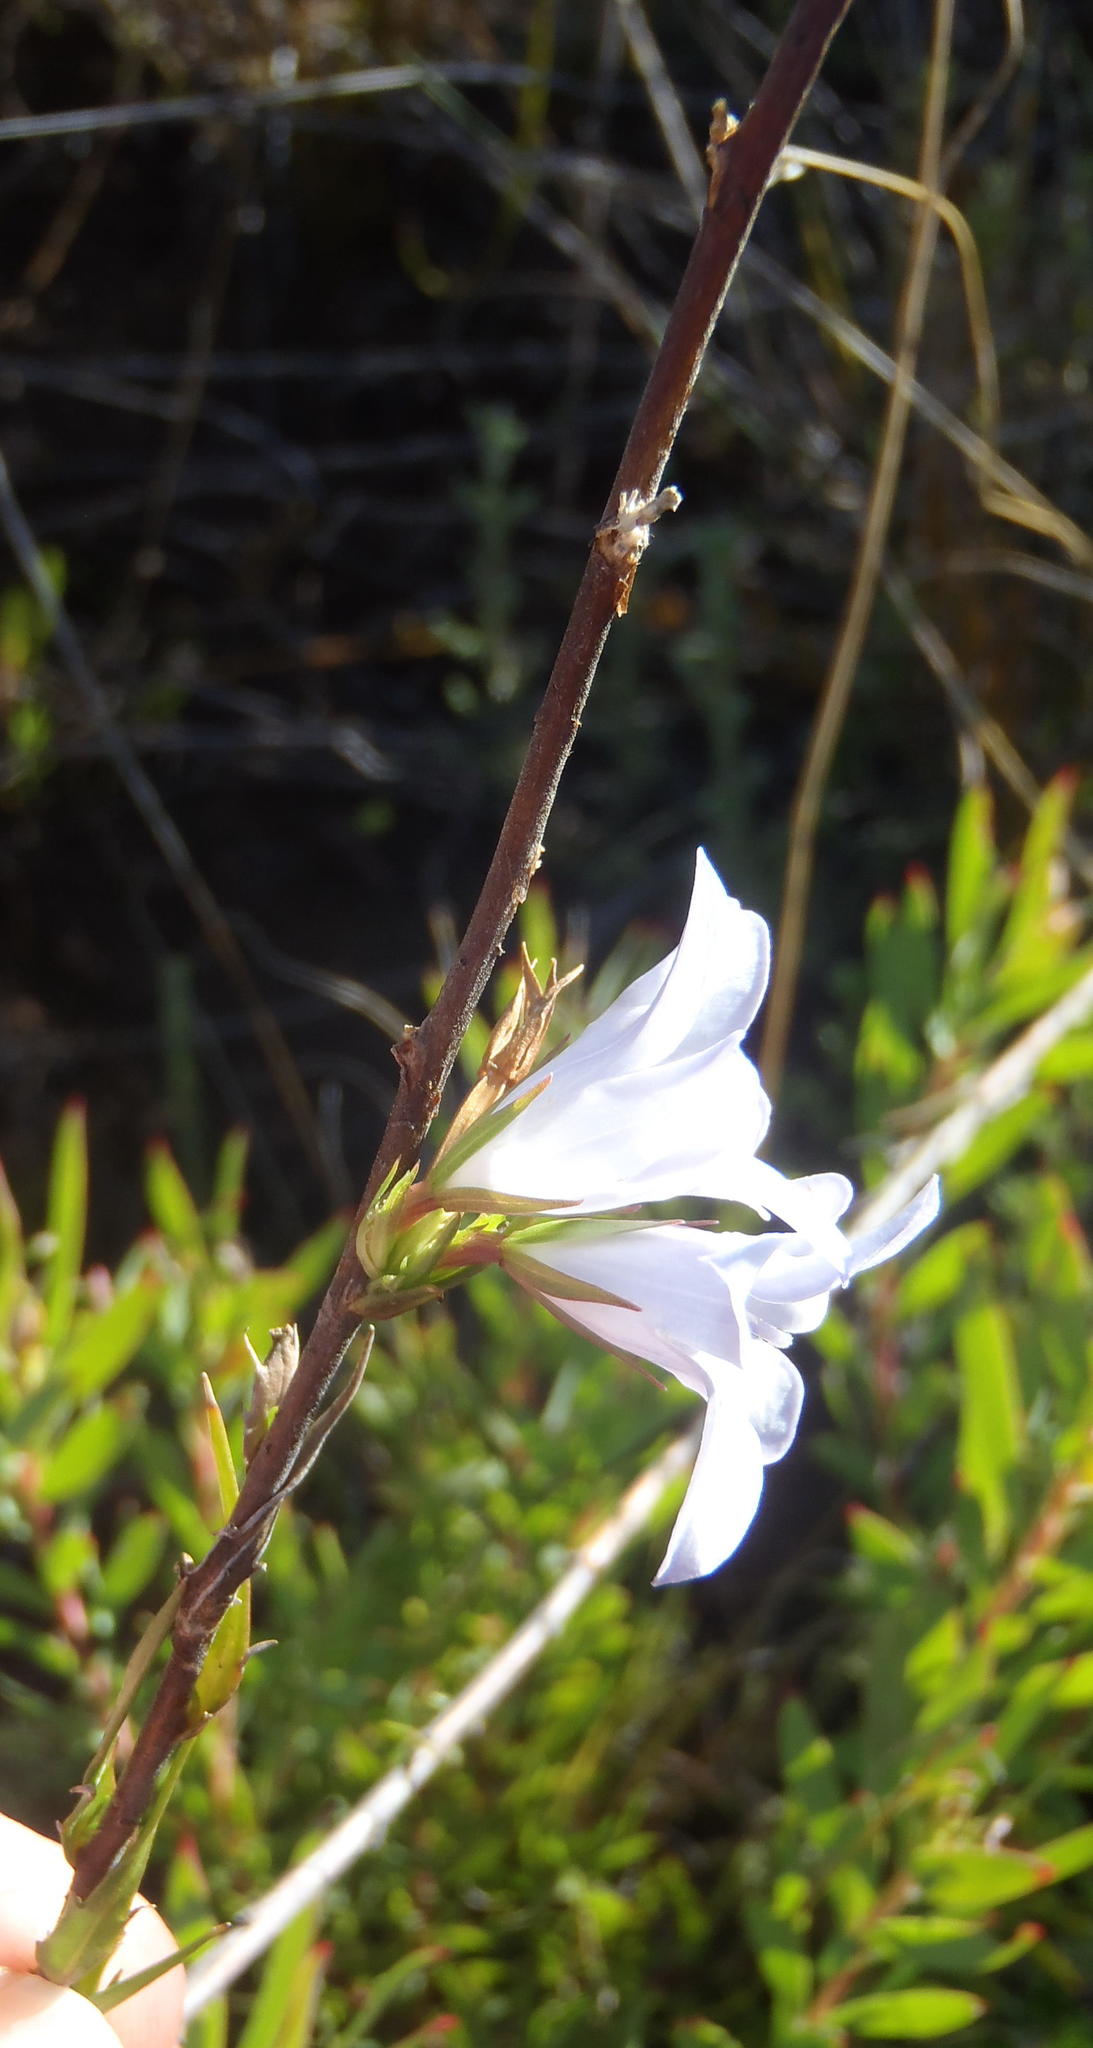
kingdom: Plantae
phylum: Tracheophyta
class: Magnoliopsida
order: Asterales
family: Campanulaceae
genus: Prismatocarpus
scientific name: Prismatocarpus candolleanus
